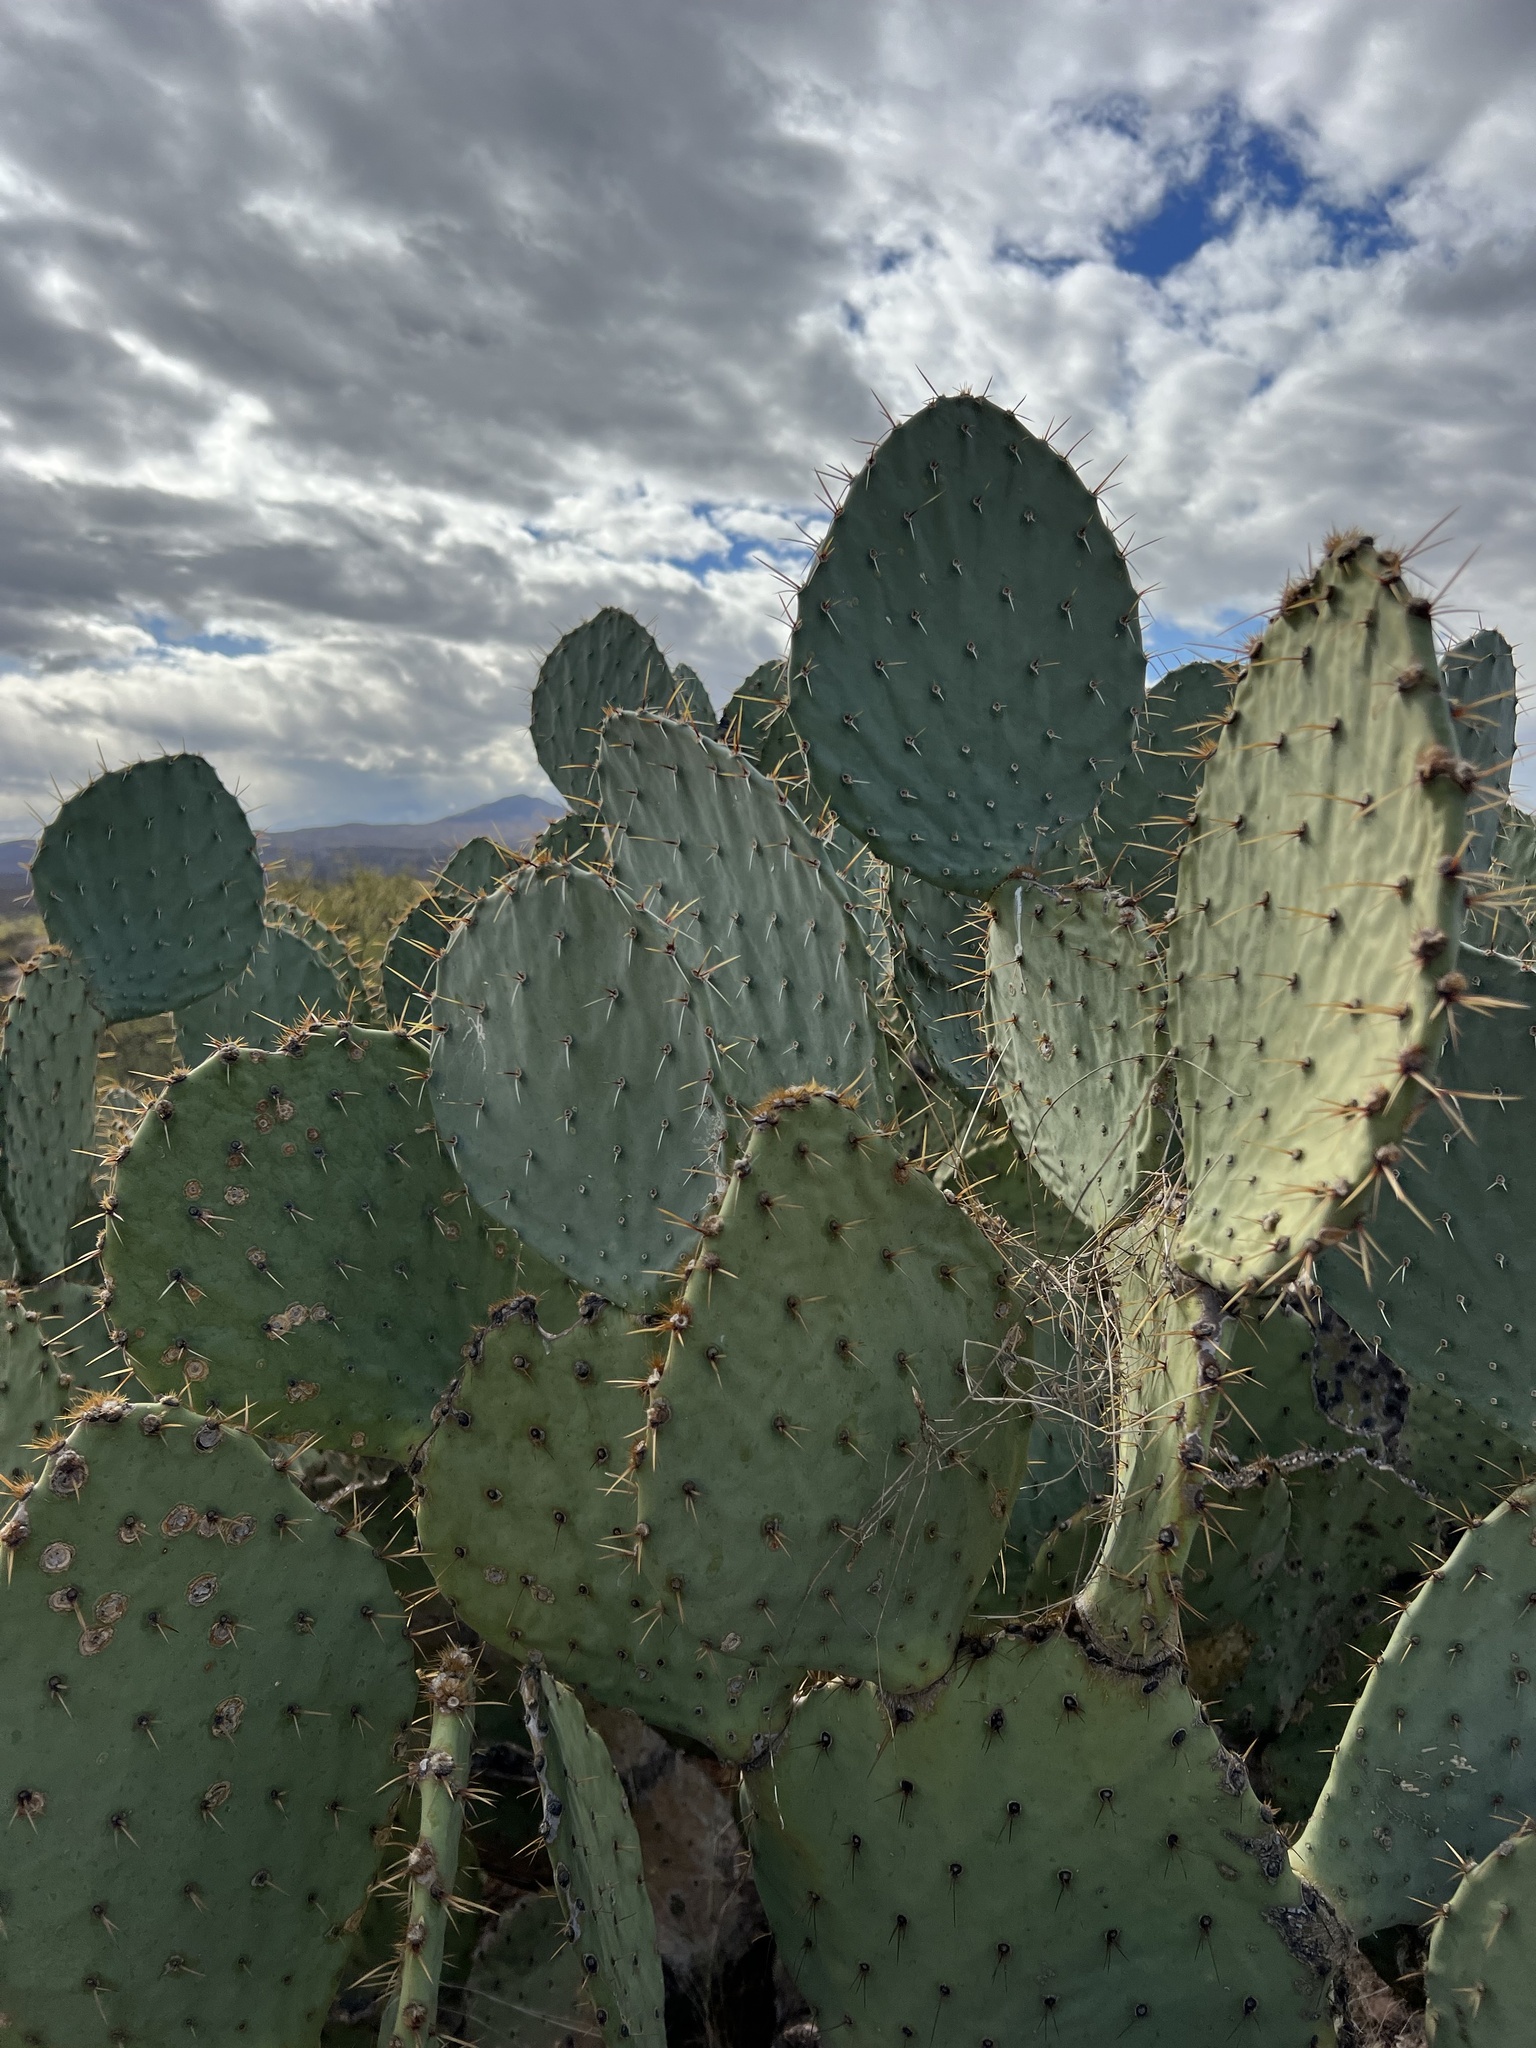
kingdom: Plantae
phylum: Tracheophyta
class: Magnoliopsida
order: Caryophyllales
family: Cactaceae
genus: Opuntia
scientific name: Opuntia engelmannii
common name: Cactus-apple
